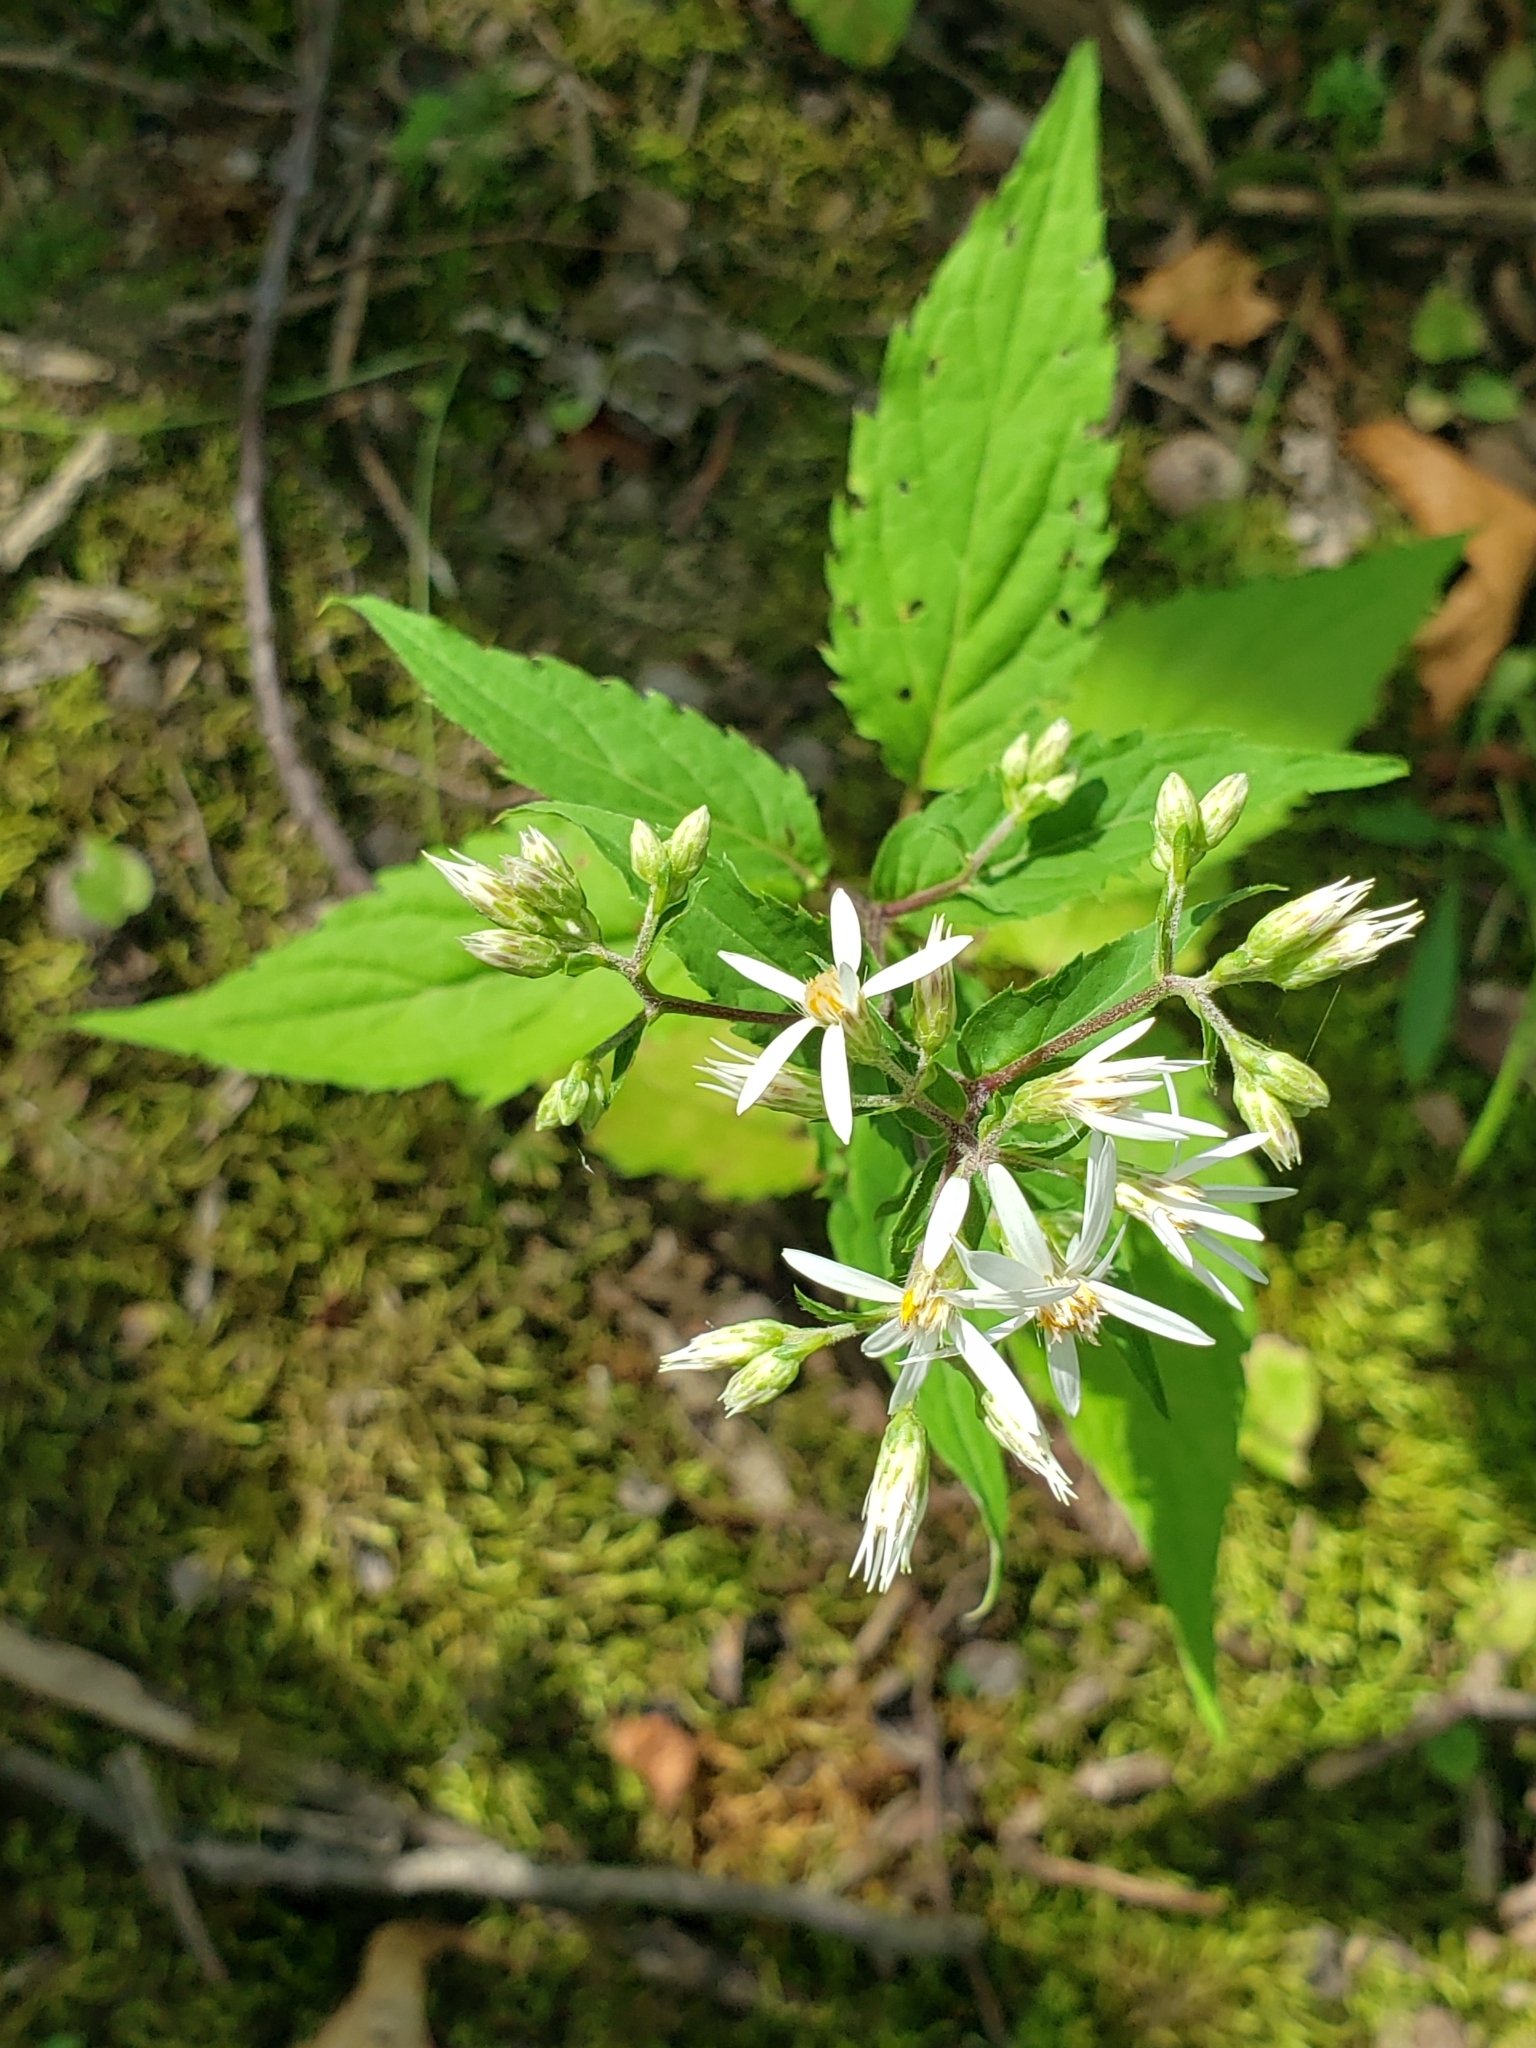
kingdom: Plantae
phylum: Tracheophyta
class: Magnoliopsida
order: Asterales
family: Asteraceae
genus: Eurybia
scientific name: Eurybia divaricata
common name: White wood aster
